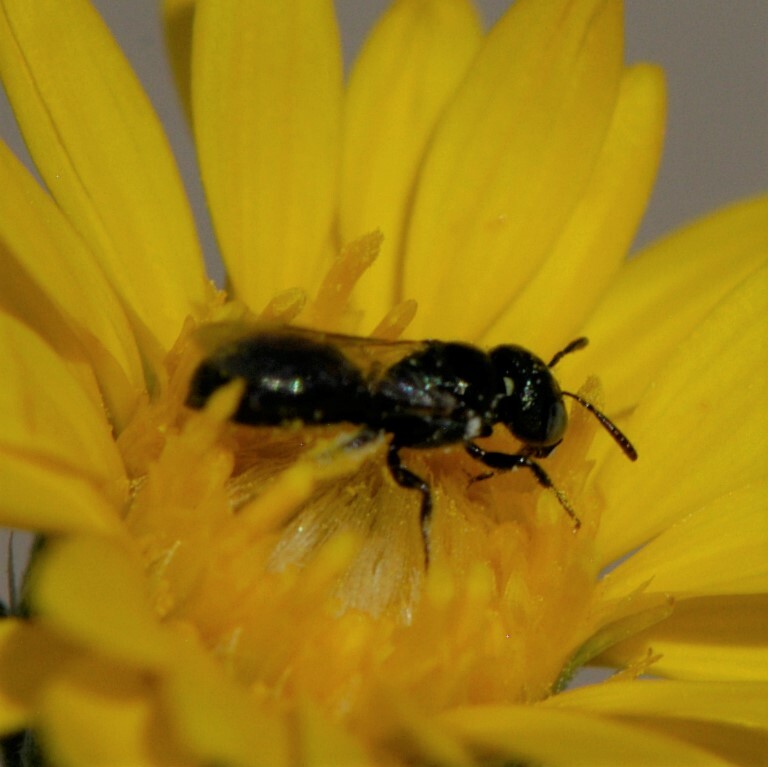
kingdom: Animalia
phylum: Arthropoda
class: Insecta
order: Hymenoptera
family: Apidae
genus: Zadontomerus
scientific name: Zadontomerus
